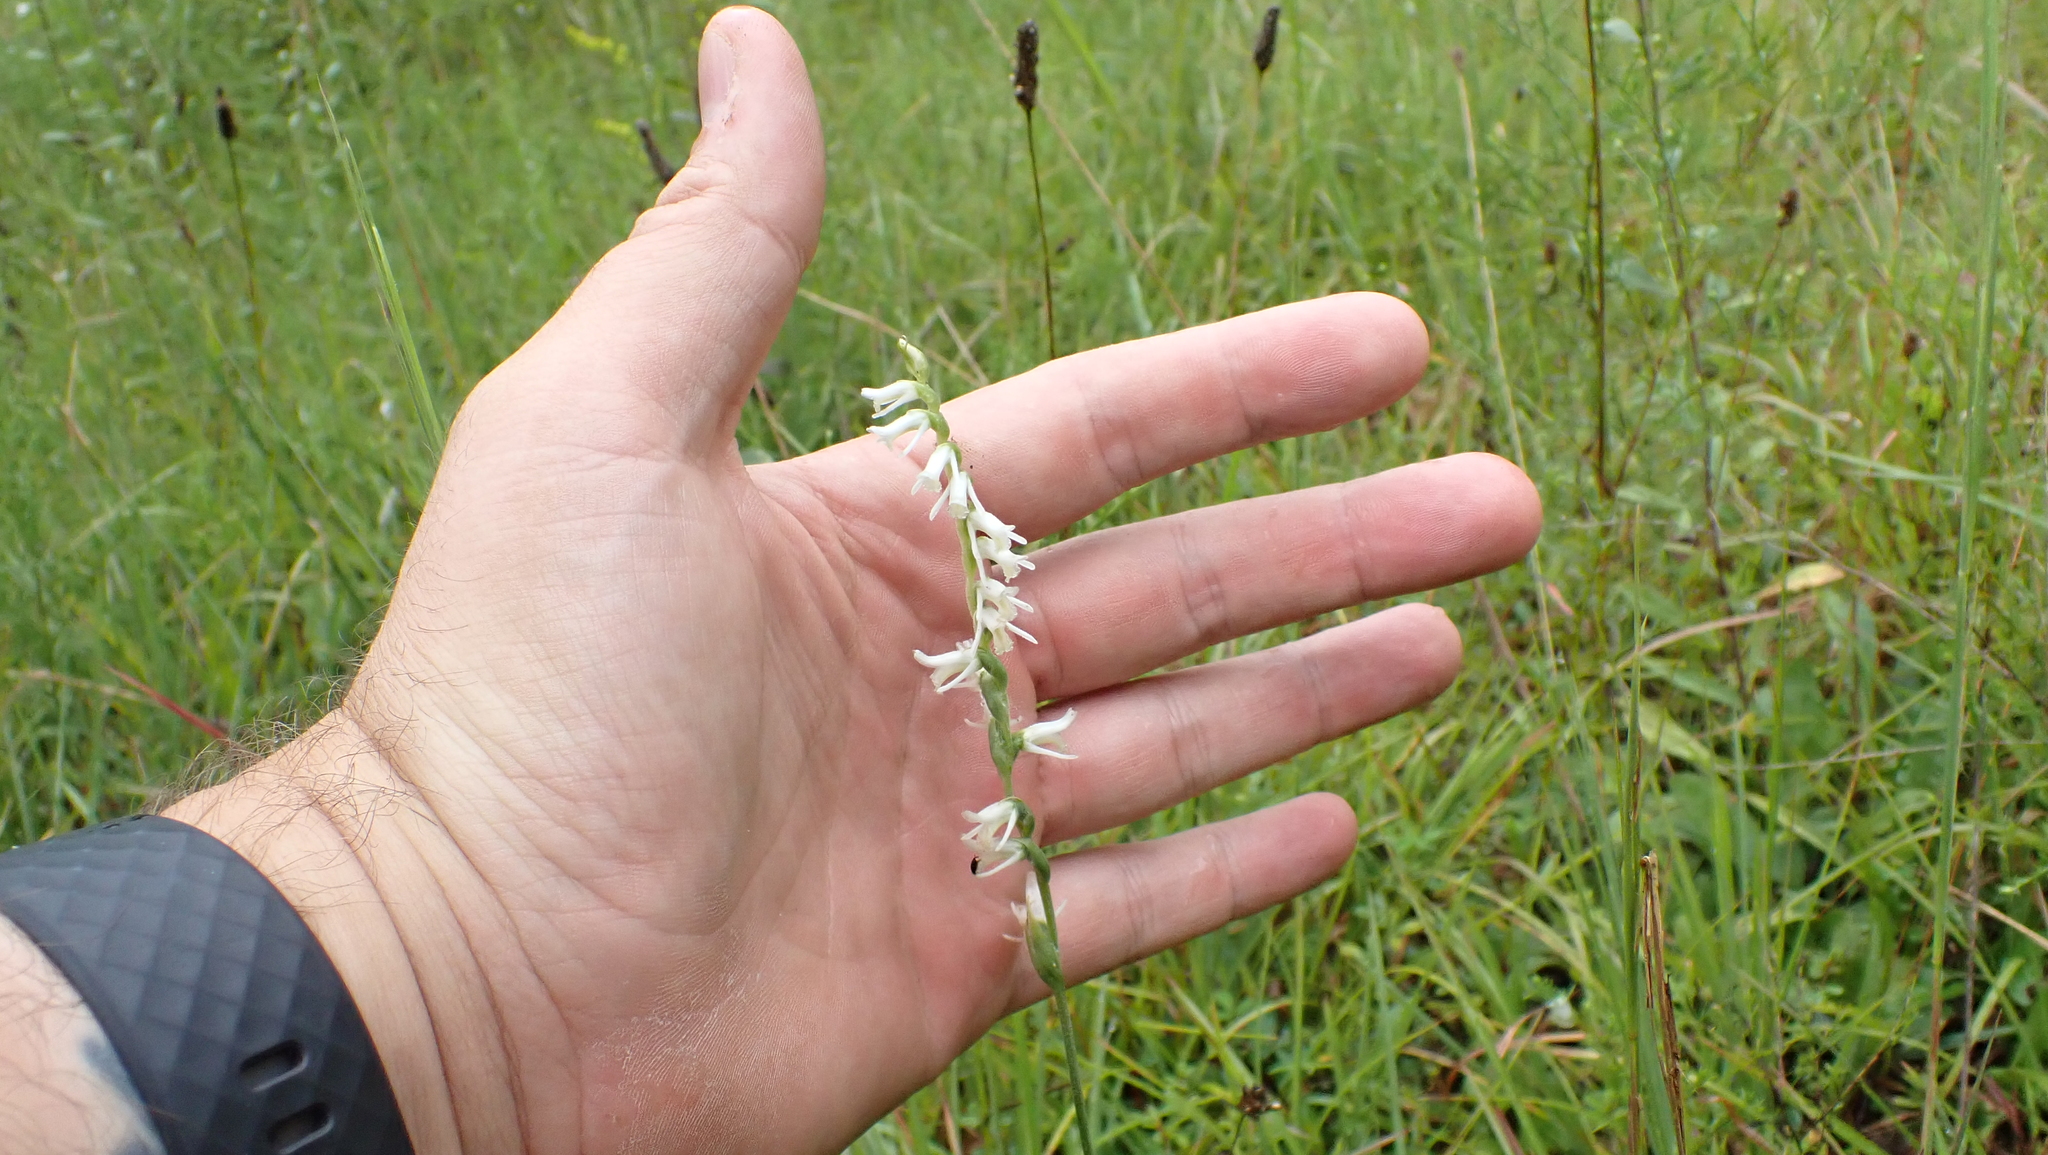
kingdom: Plantae
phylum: Tracheophyta
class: Liliopsida
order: Asparagales
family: Orchidaceae
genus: Spiranthes
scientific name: Spiranthes vernalis
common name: Spring ladies'-tresses
